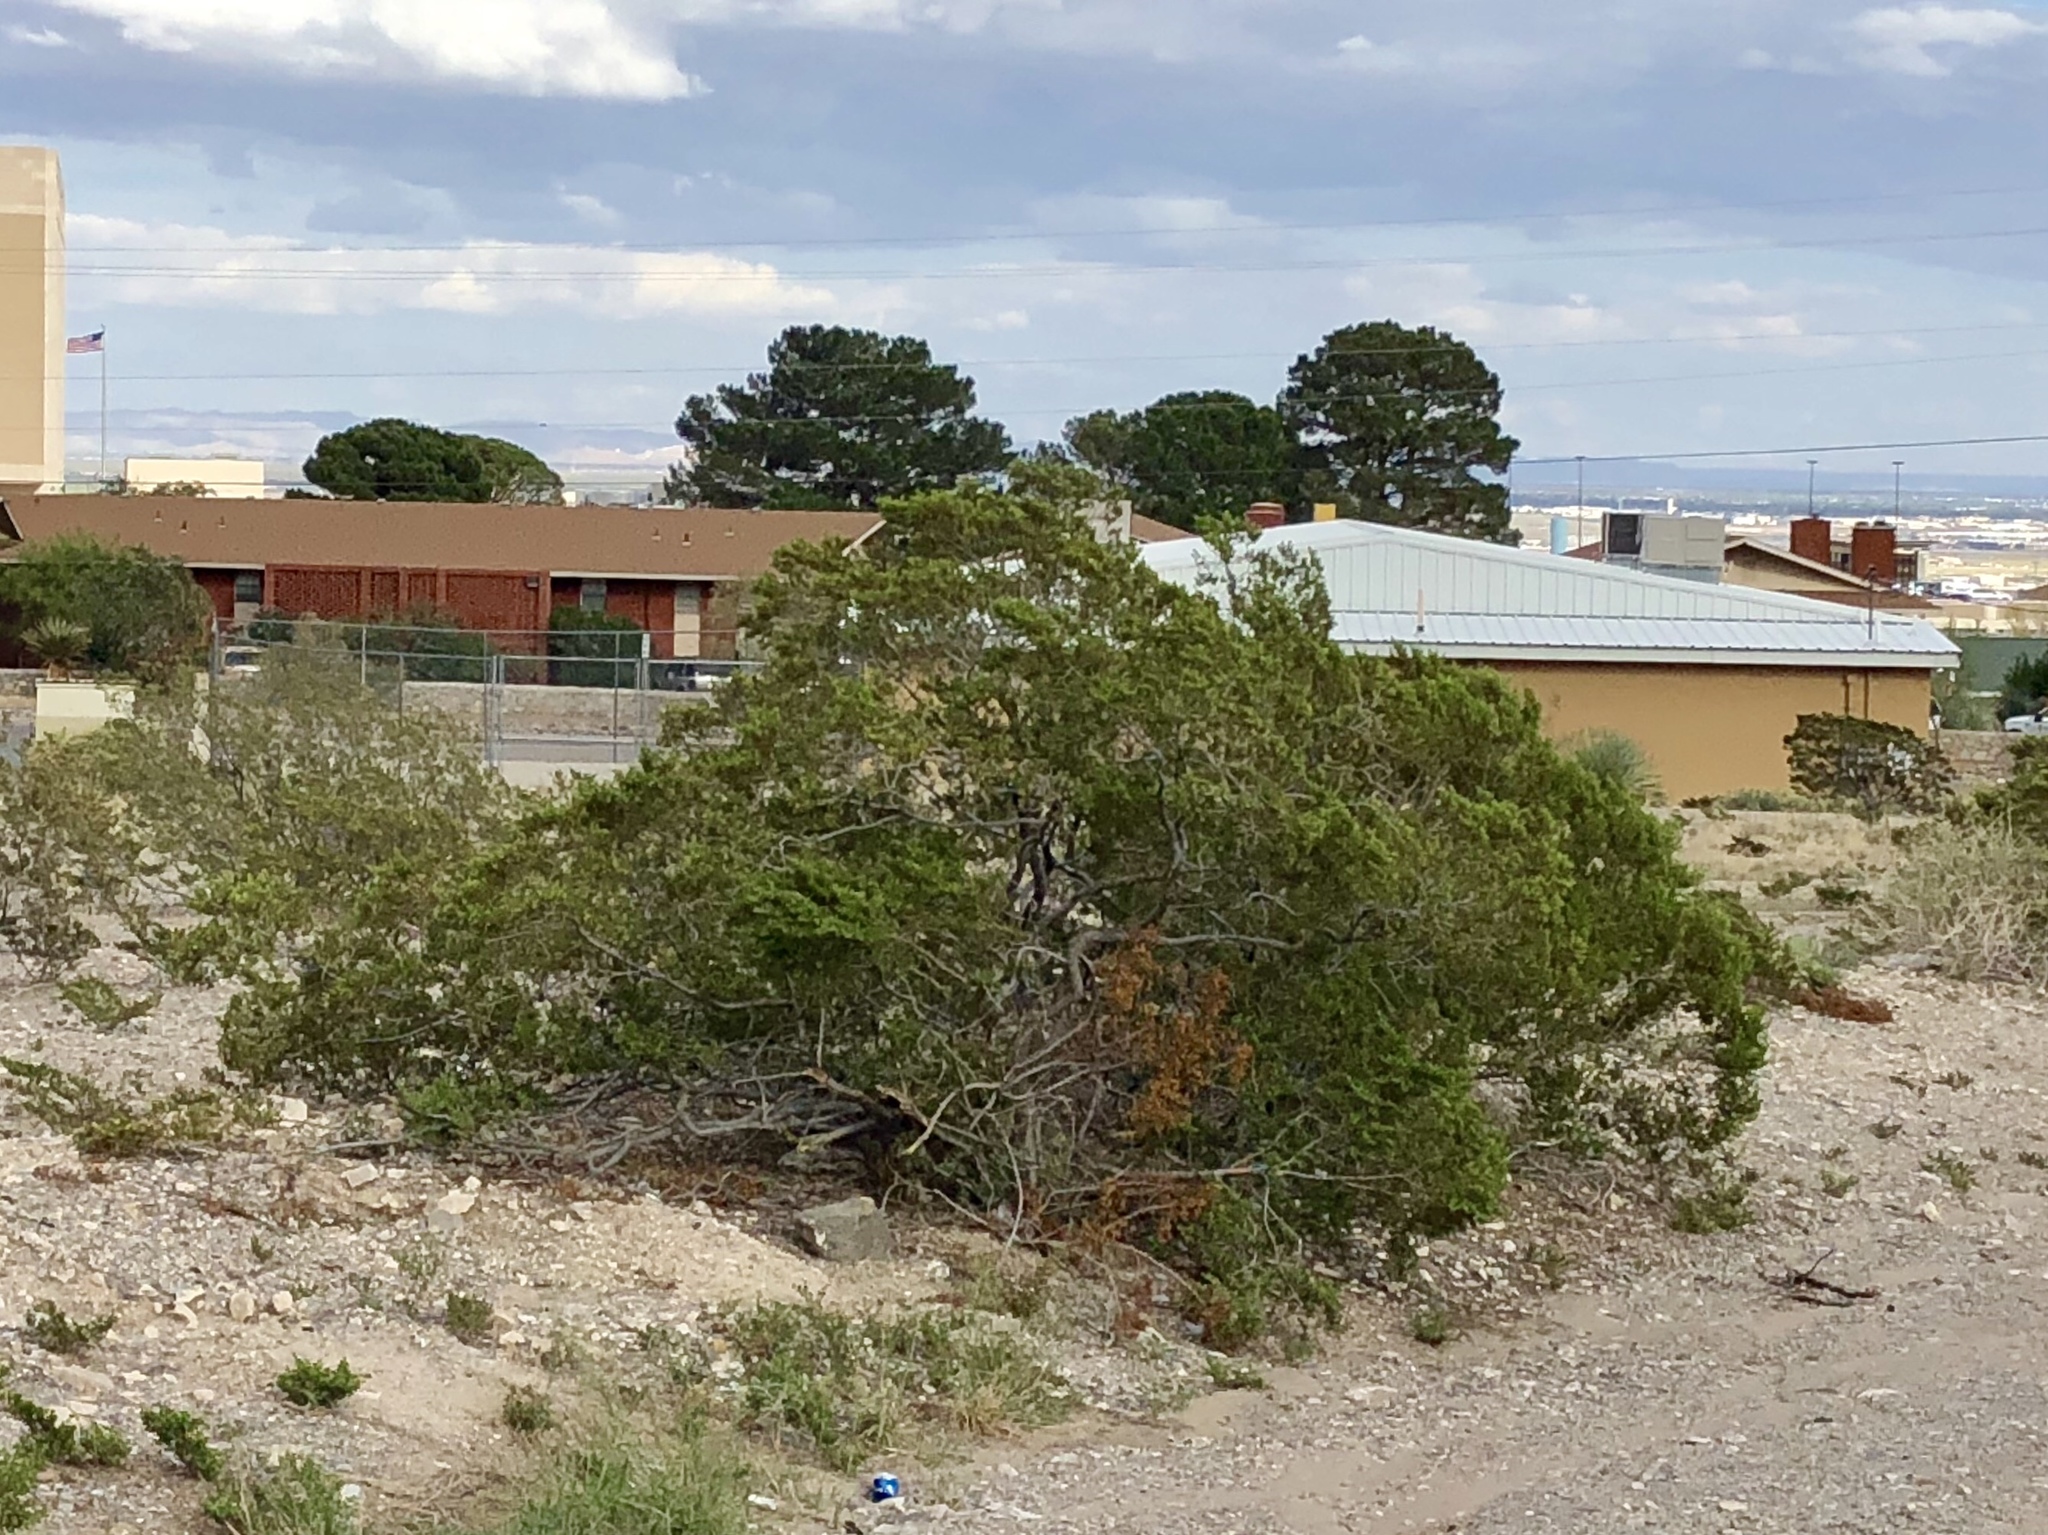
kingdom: Plantae
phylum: Tracheophyta
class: Magnoliopsida
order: Zygophyllales
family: Zygophyllaceae
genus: Larrea
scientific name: Larrea tridentata
